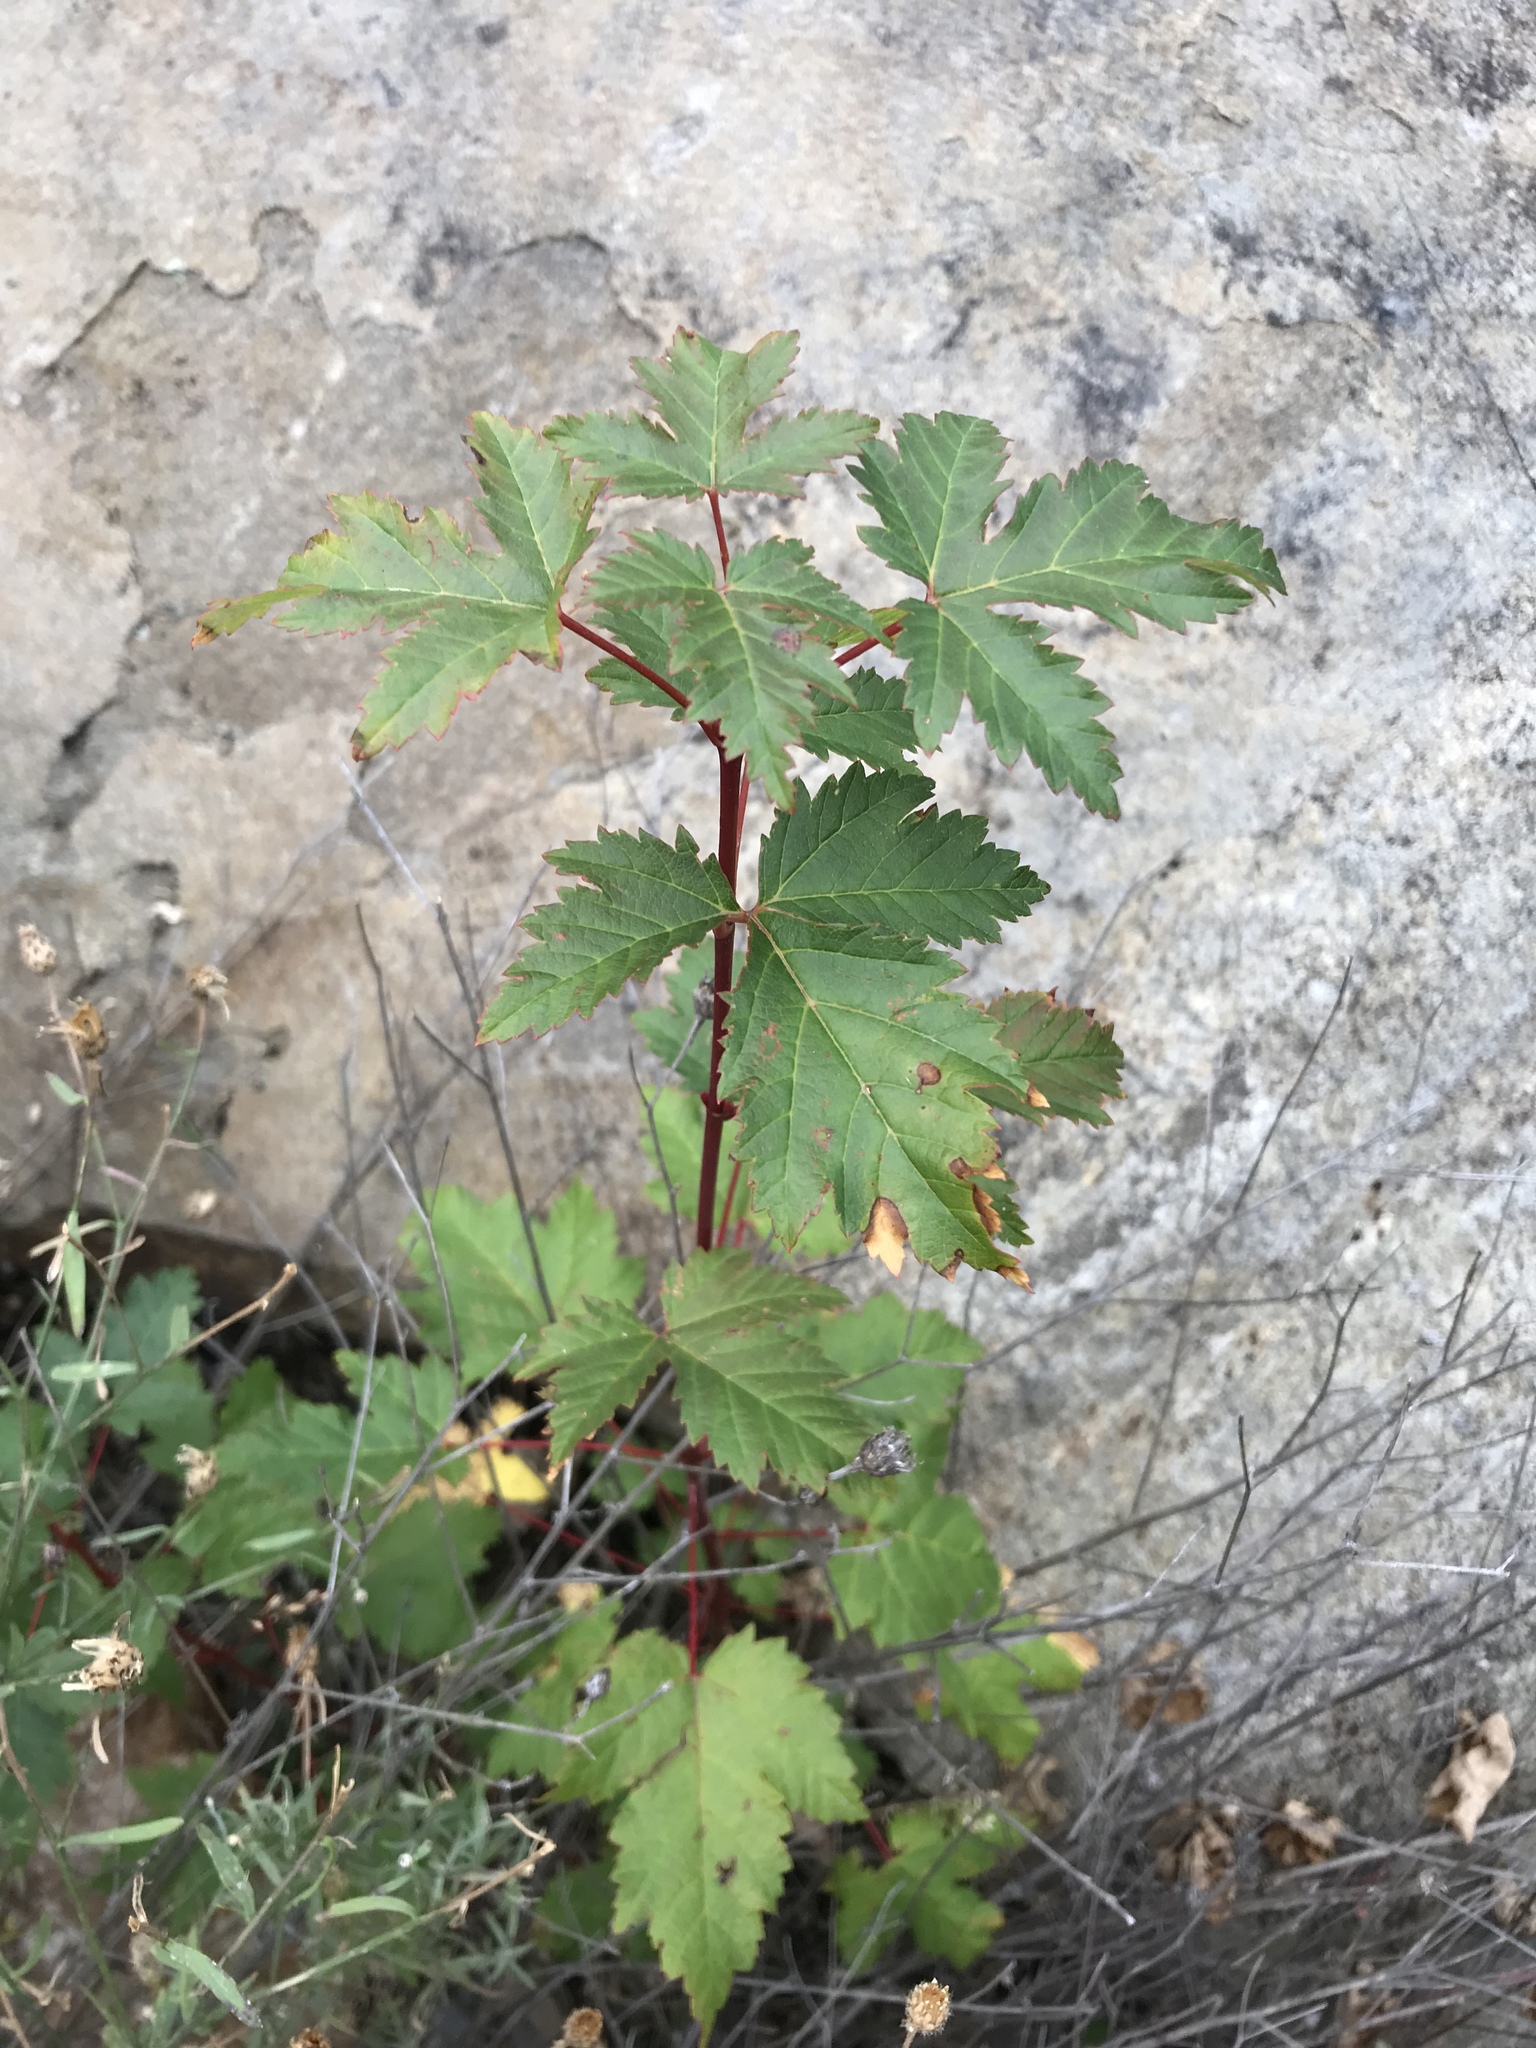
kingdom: Plantae
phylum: Tracheophyta
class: Magnoliopsida
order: Sapindales
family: Sapindaceae
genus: Acer
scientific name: Acer glabrum
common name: Rocky mountain maple
